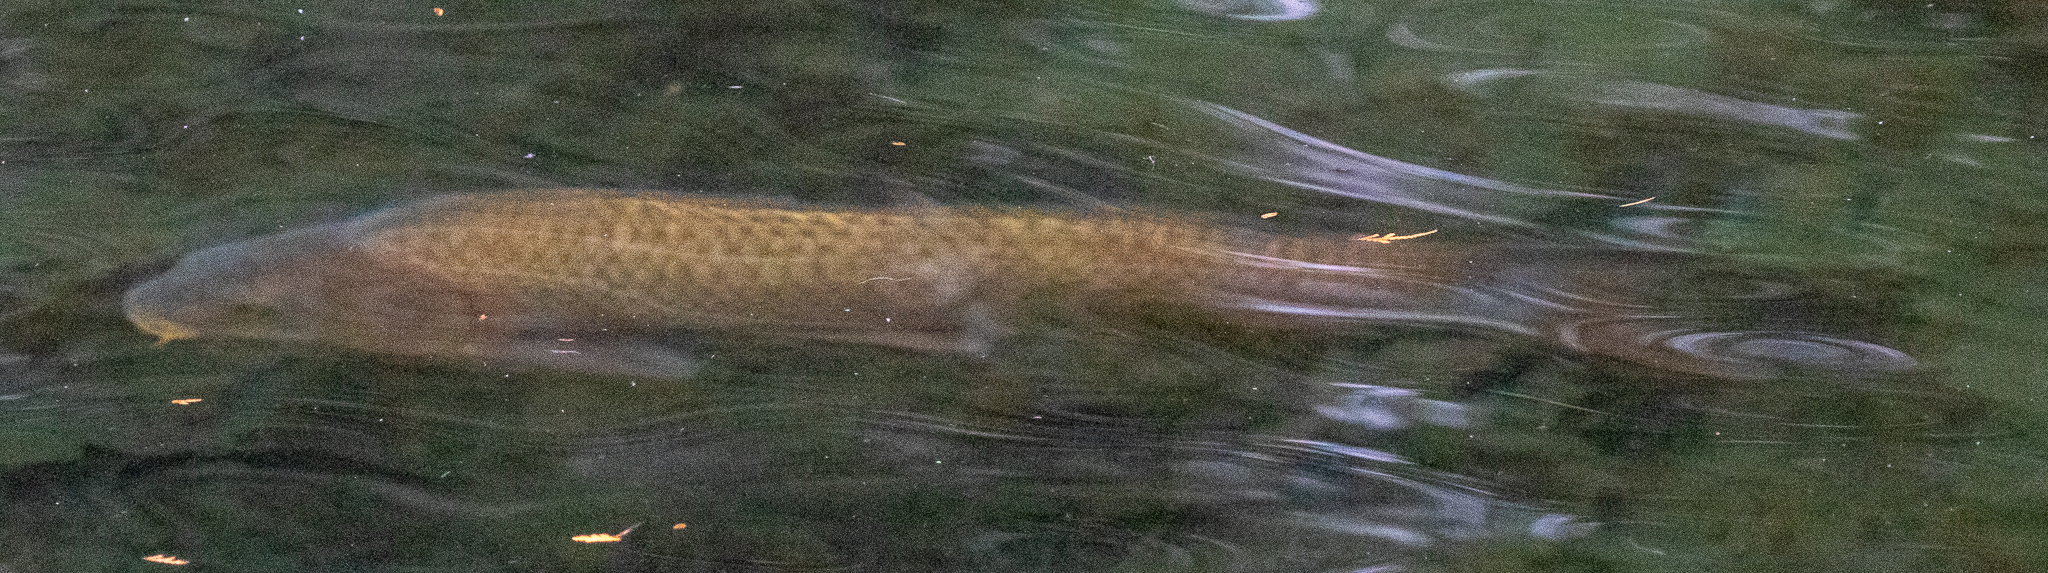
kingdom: Animalia
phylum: Chordata
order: Cypriniformes
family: Cyprinidae
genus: Cyprinus
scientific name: Cyprinus carpio
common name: Common carp
